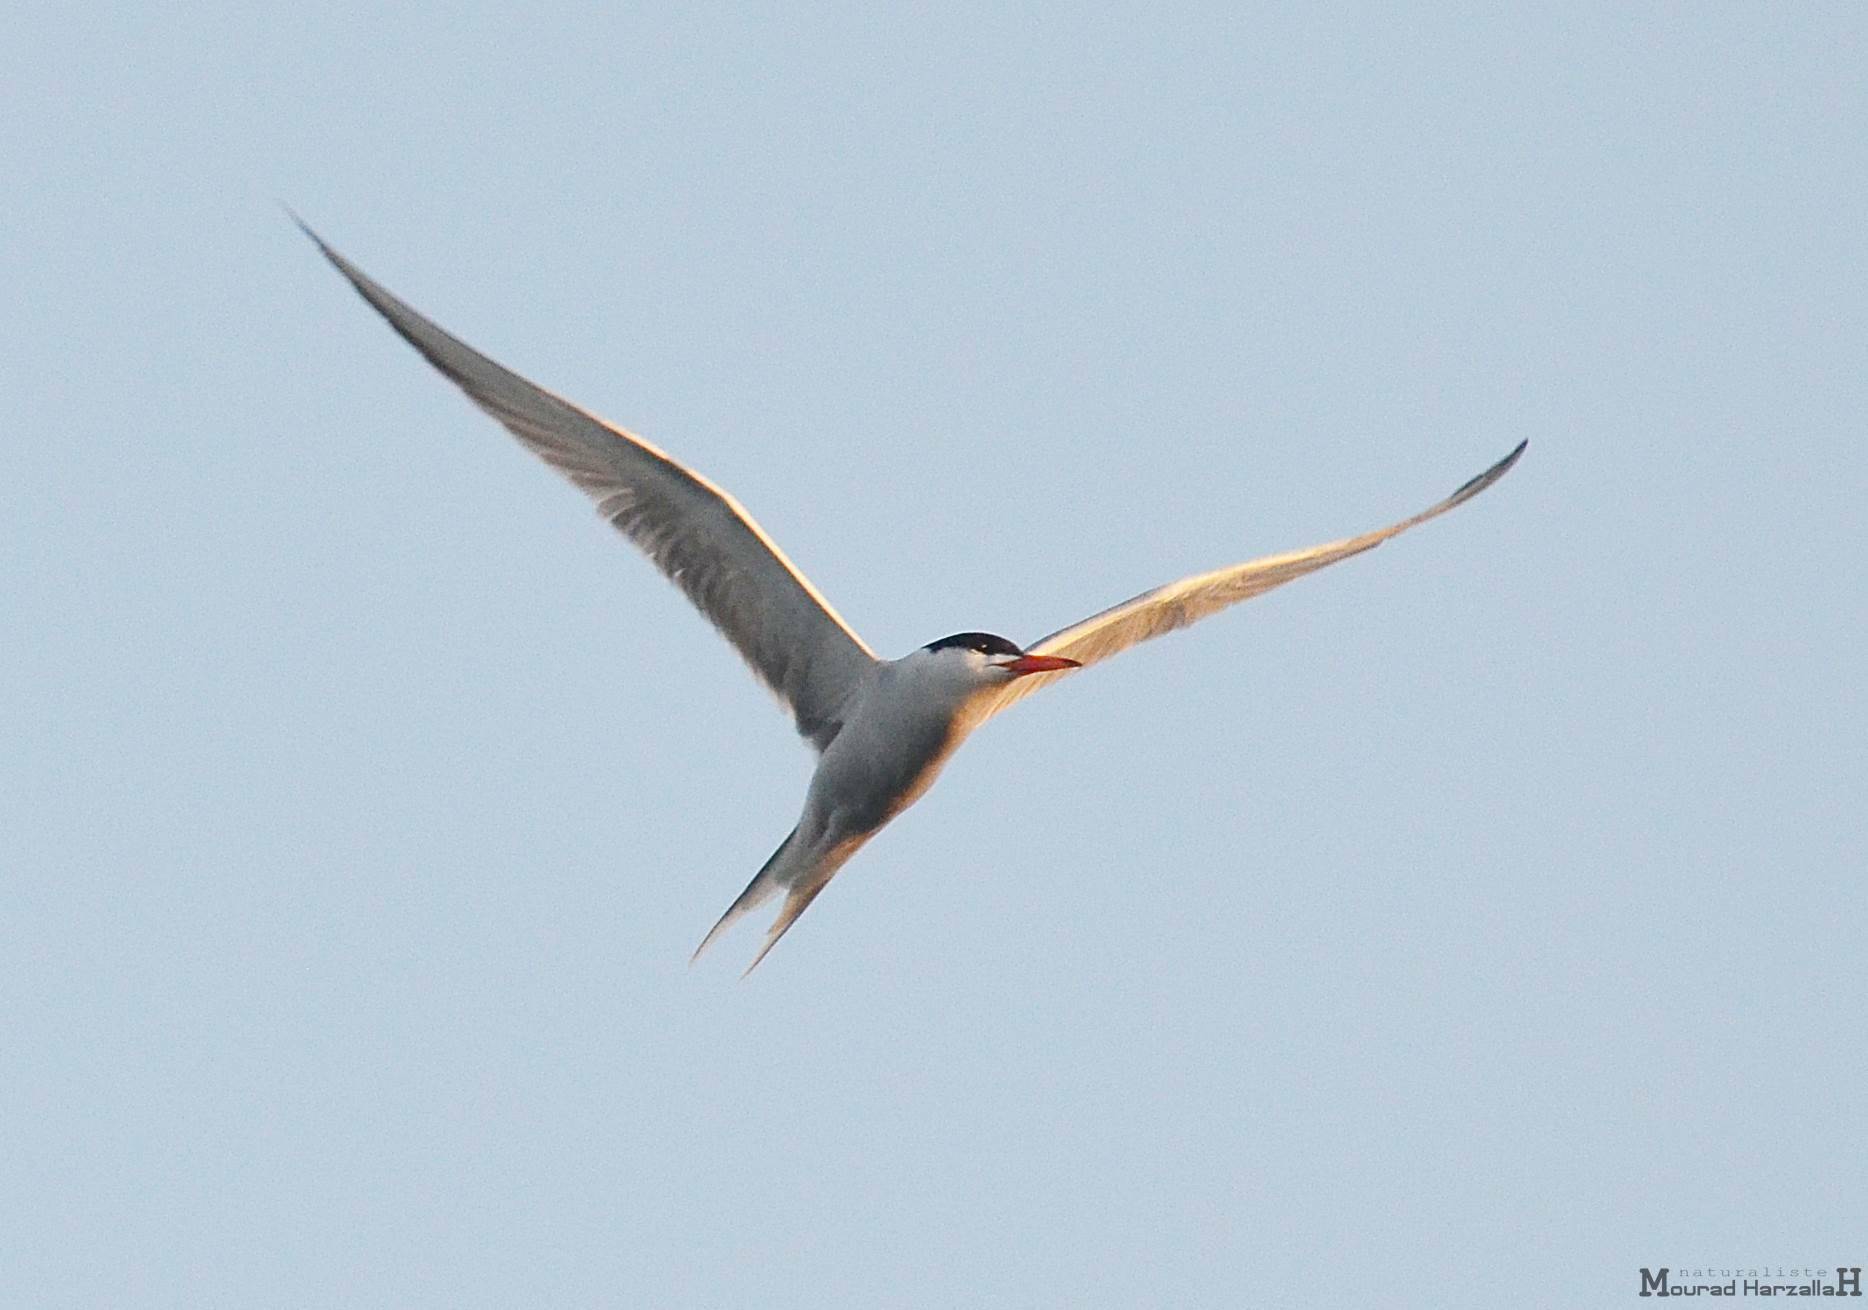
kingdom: Animalia
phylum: Chordata
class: Aves
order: Charadriiformes
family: Laridae
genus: Sterna
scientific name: Sterna hirundo
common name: Common tern
